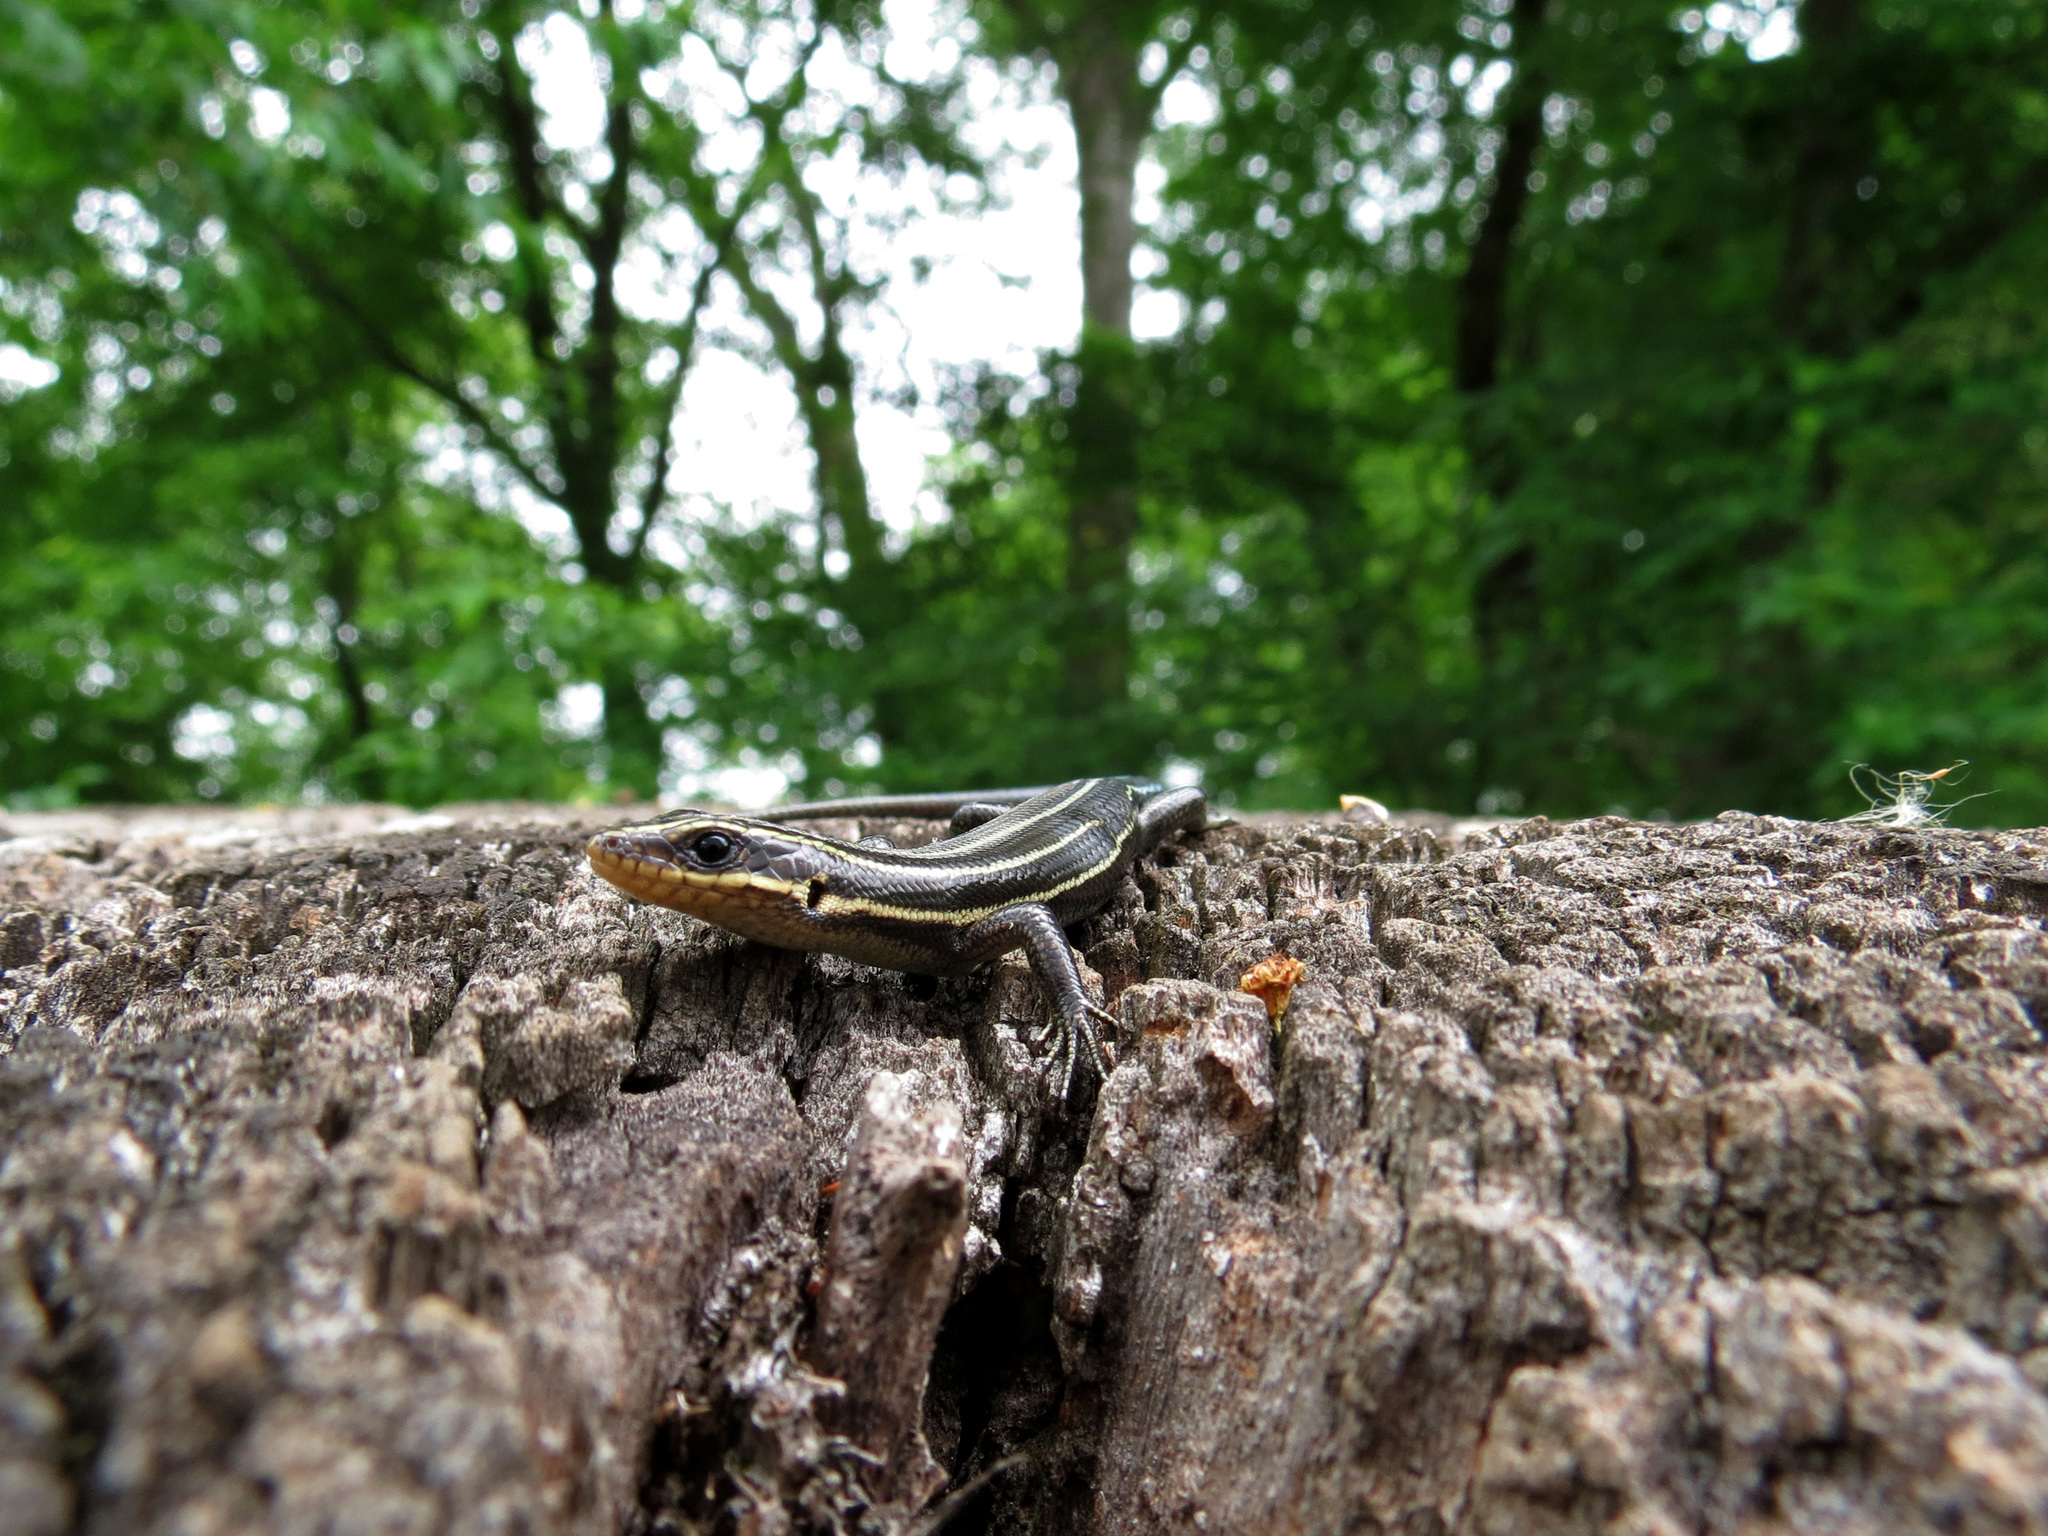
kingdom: Animalia
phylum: Chordata
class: Squamata
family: Scincidae
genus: Plestiodon
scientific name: Plestiodon fasciatus
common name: Five-lined skink
